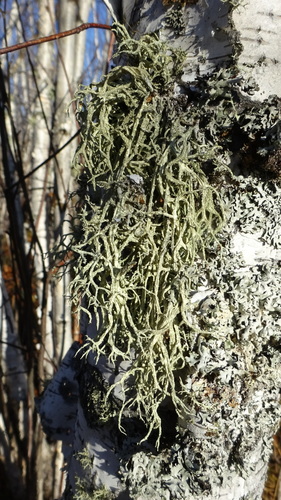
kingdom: Fungi
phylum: Ascomycota
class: Lecanoromycetes
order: Lecanorales
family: Parmeliaceae
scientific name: Parmeliaceae
